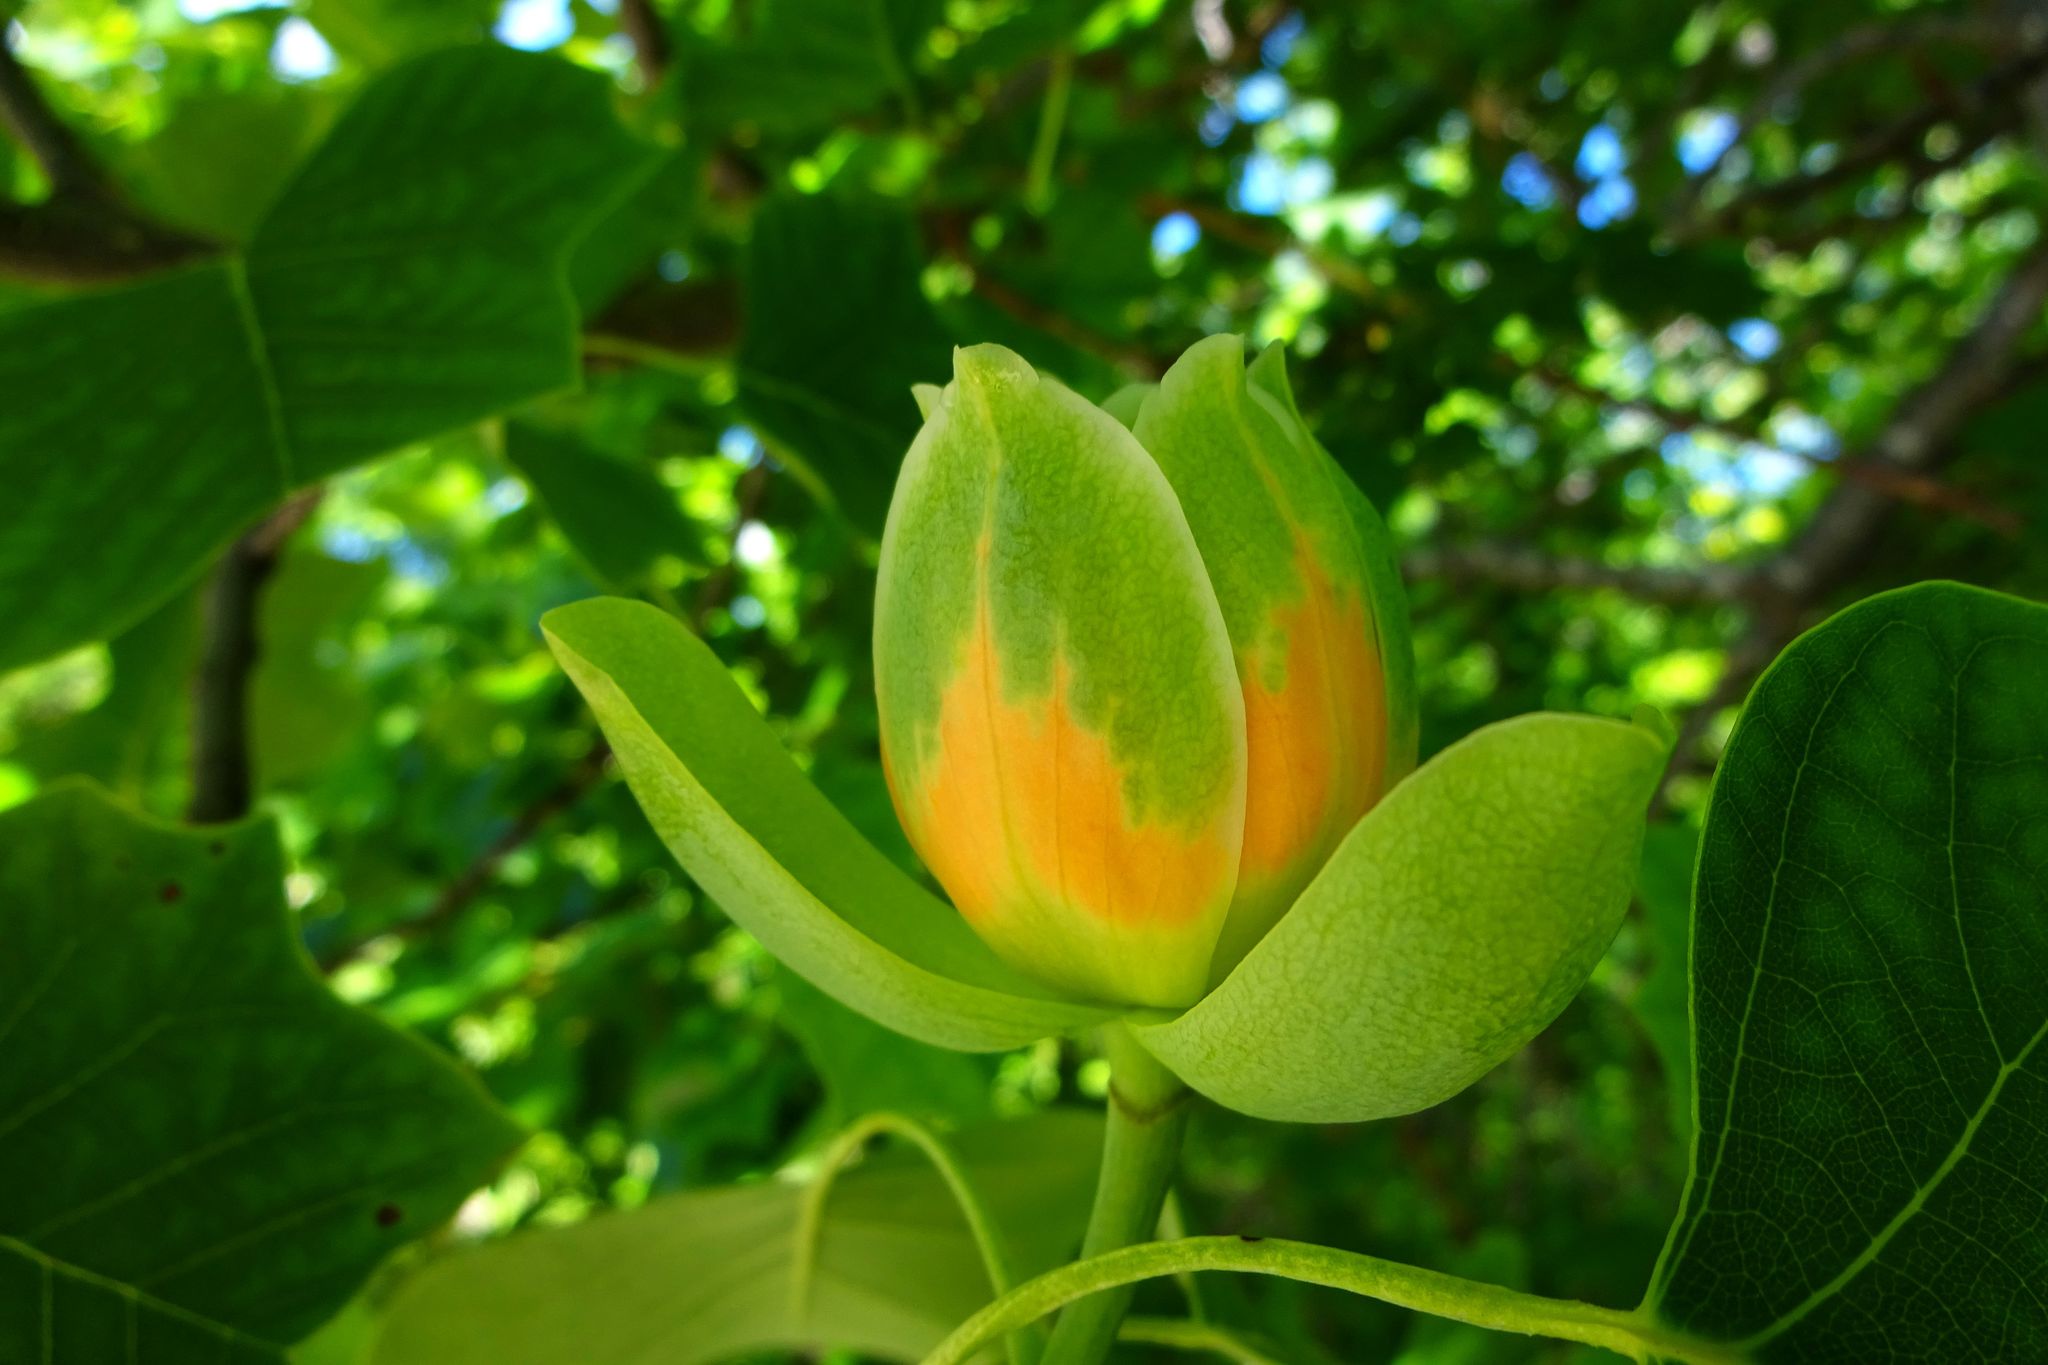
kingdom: Plantae
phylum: Tracheophyta
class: Magnoliopsida
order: Magnoliales
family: Magnoliaceae
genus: Liriodendron
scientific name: Liriodendron tulipifera
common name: Tulip tree
